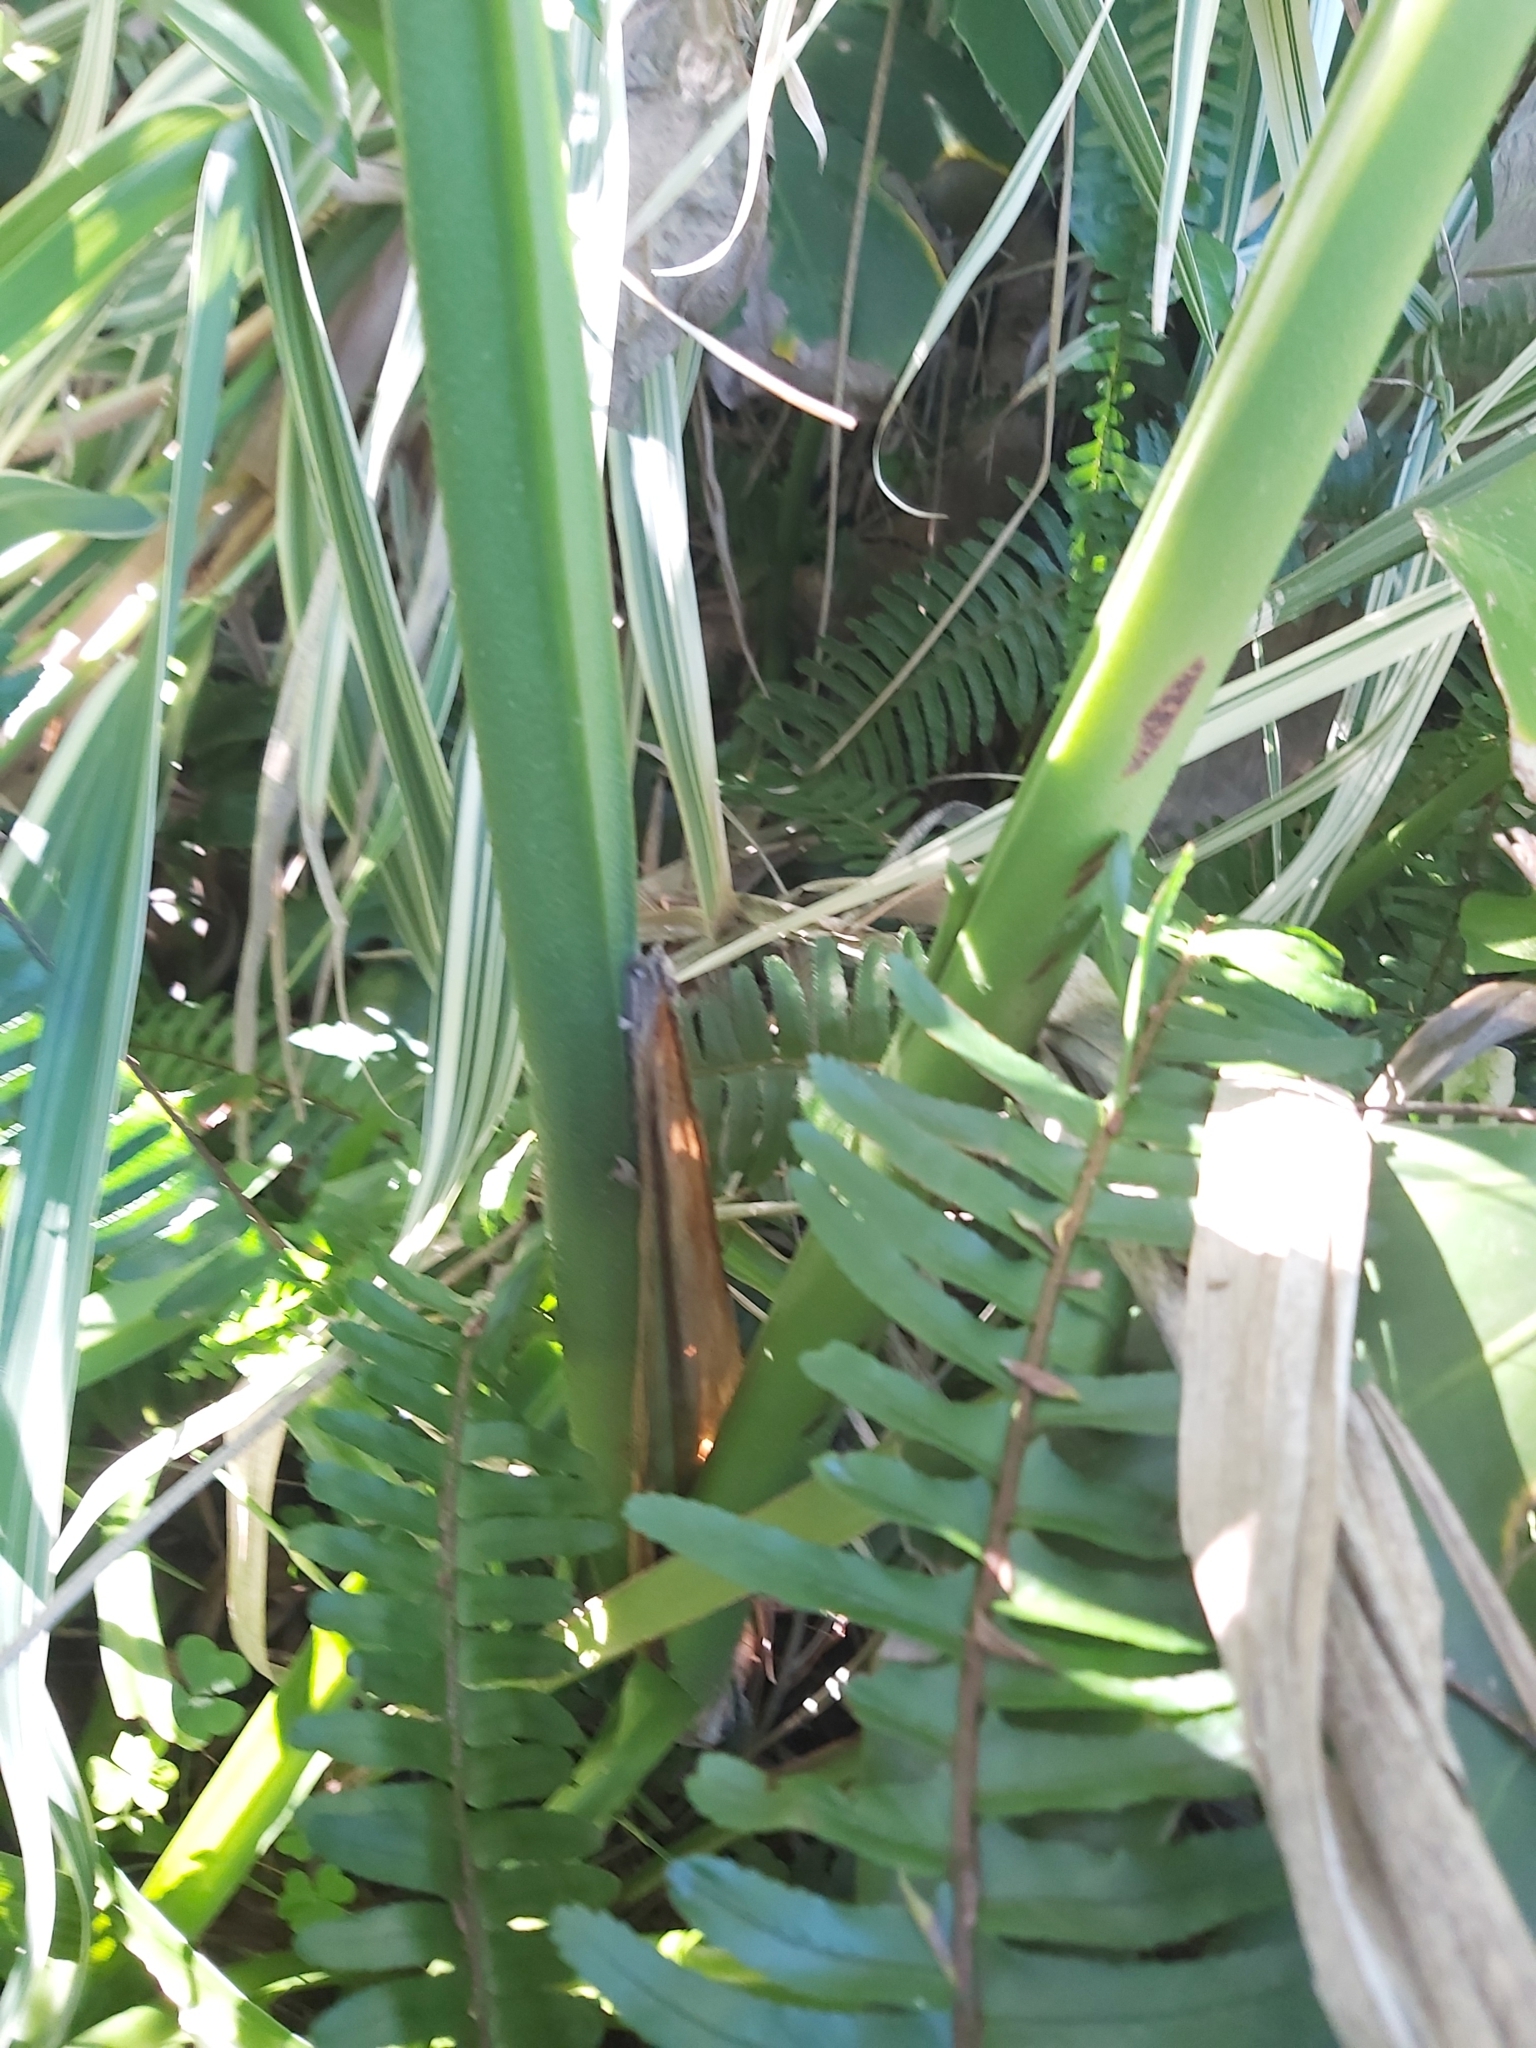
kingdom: Plantae
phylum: Tracheophyta
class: Liliopsida
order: Alismatales
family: Araceae
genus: Monstera
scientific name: Monstera deliciosa
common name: Cut-leaf-philodendron
